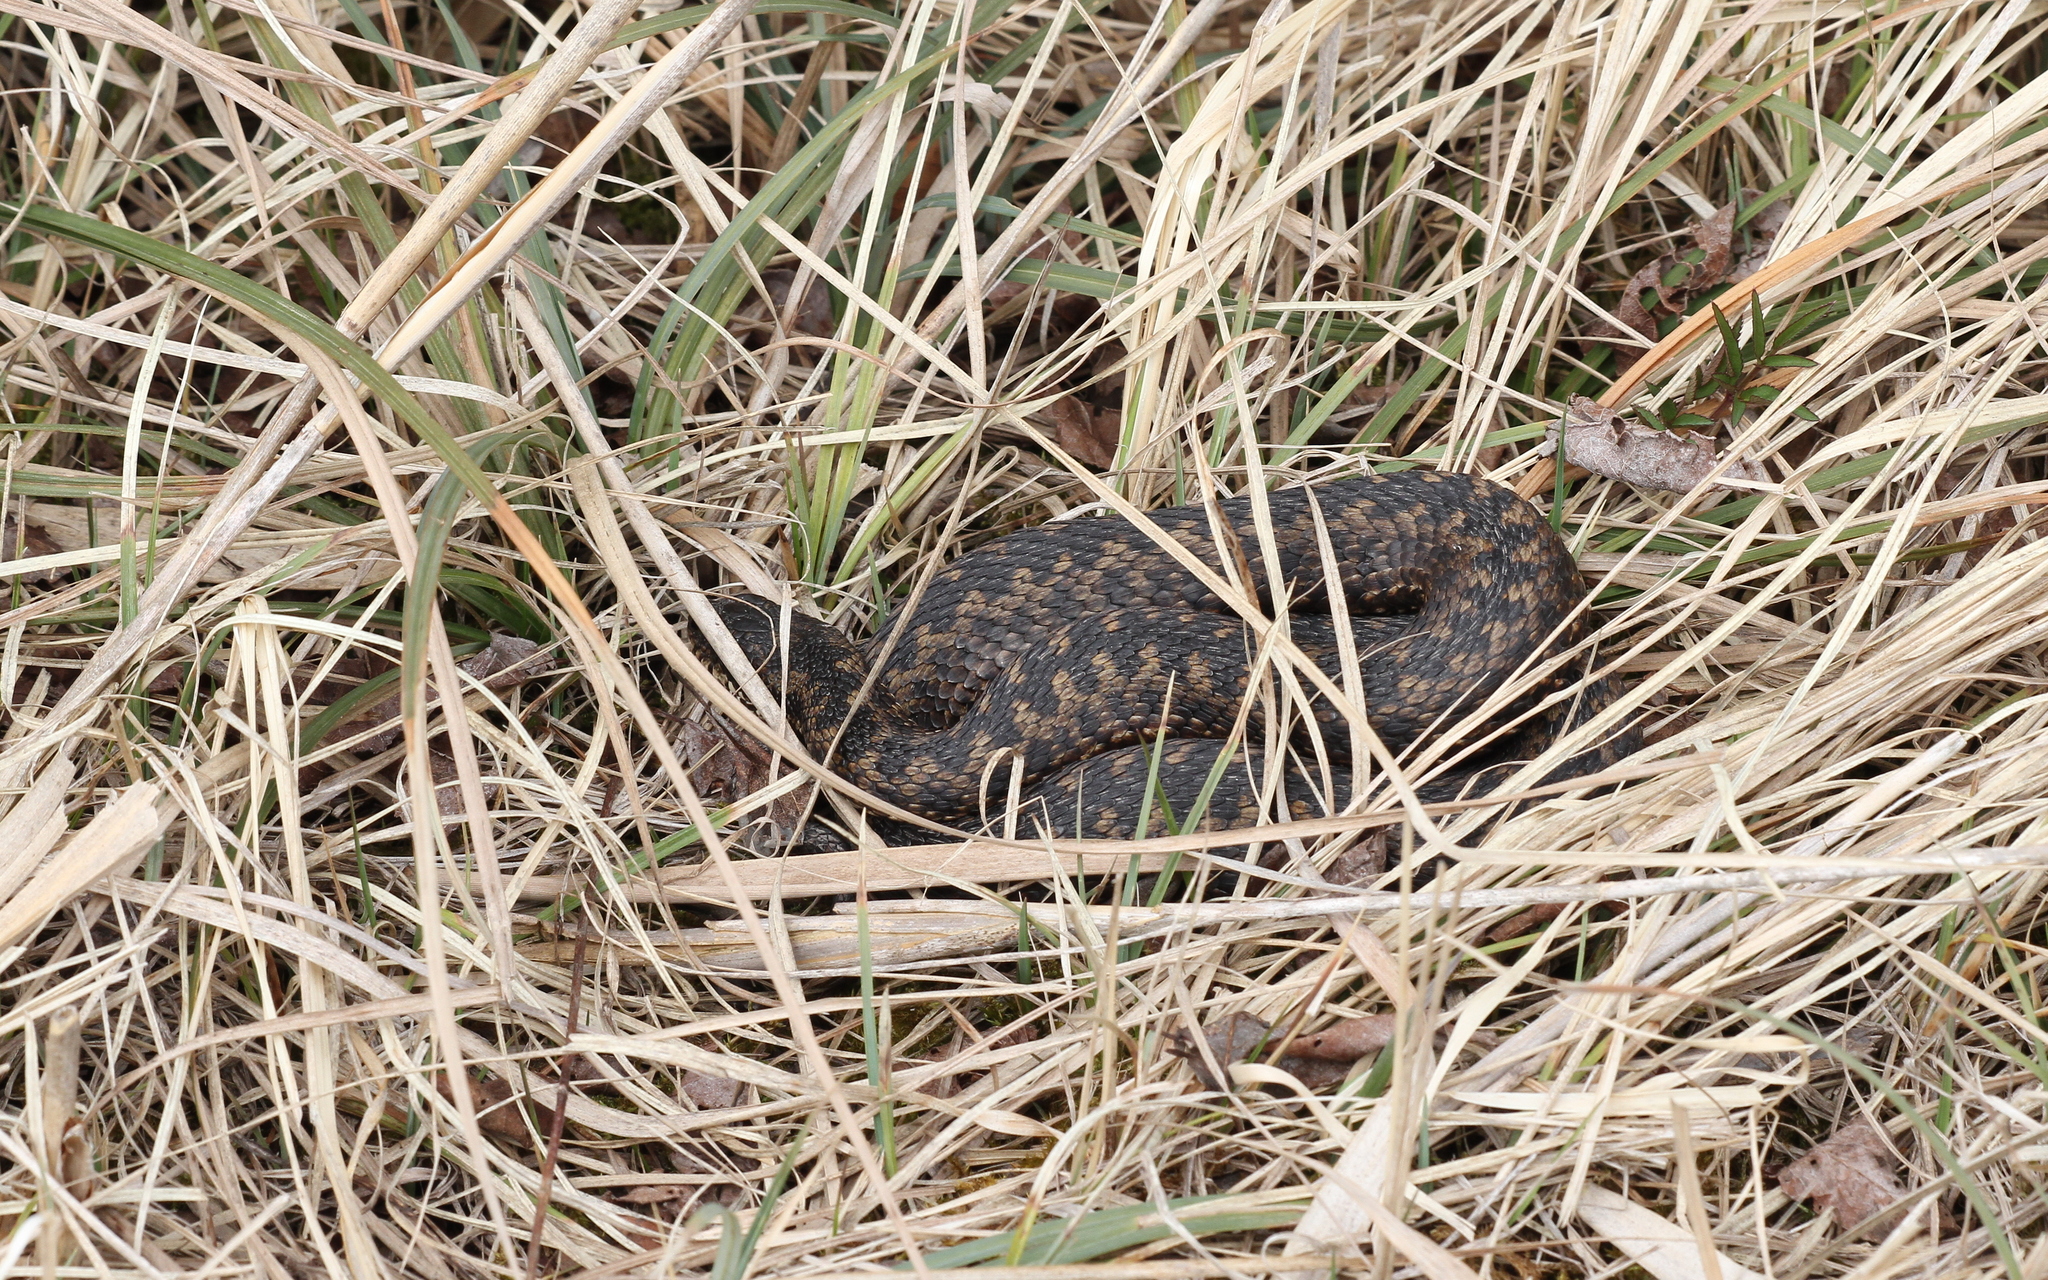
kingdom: Animalia
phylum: Chordata
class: Squamata
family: Viperidae
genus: Vipera
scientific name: Vipera berus
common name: Adder
